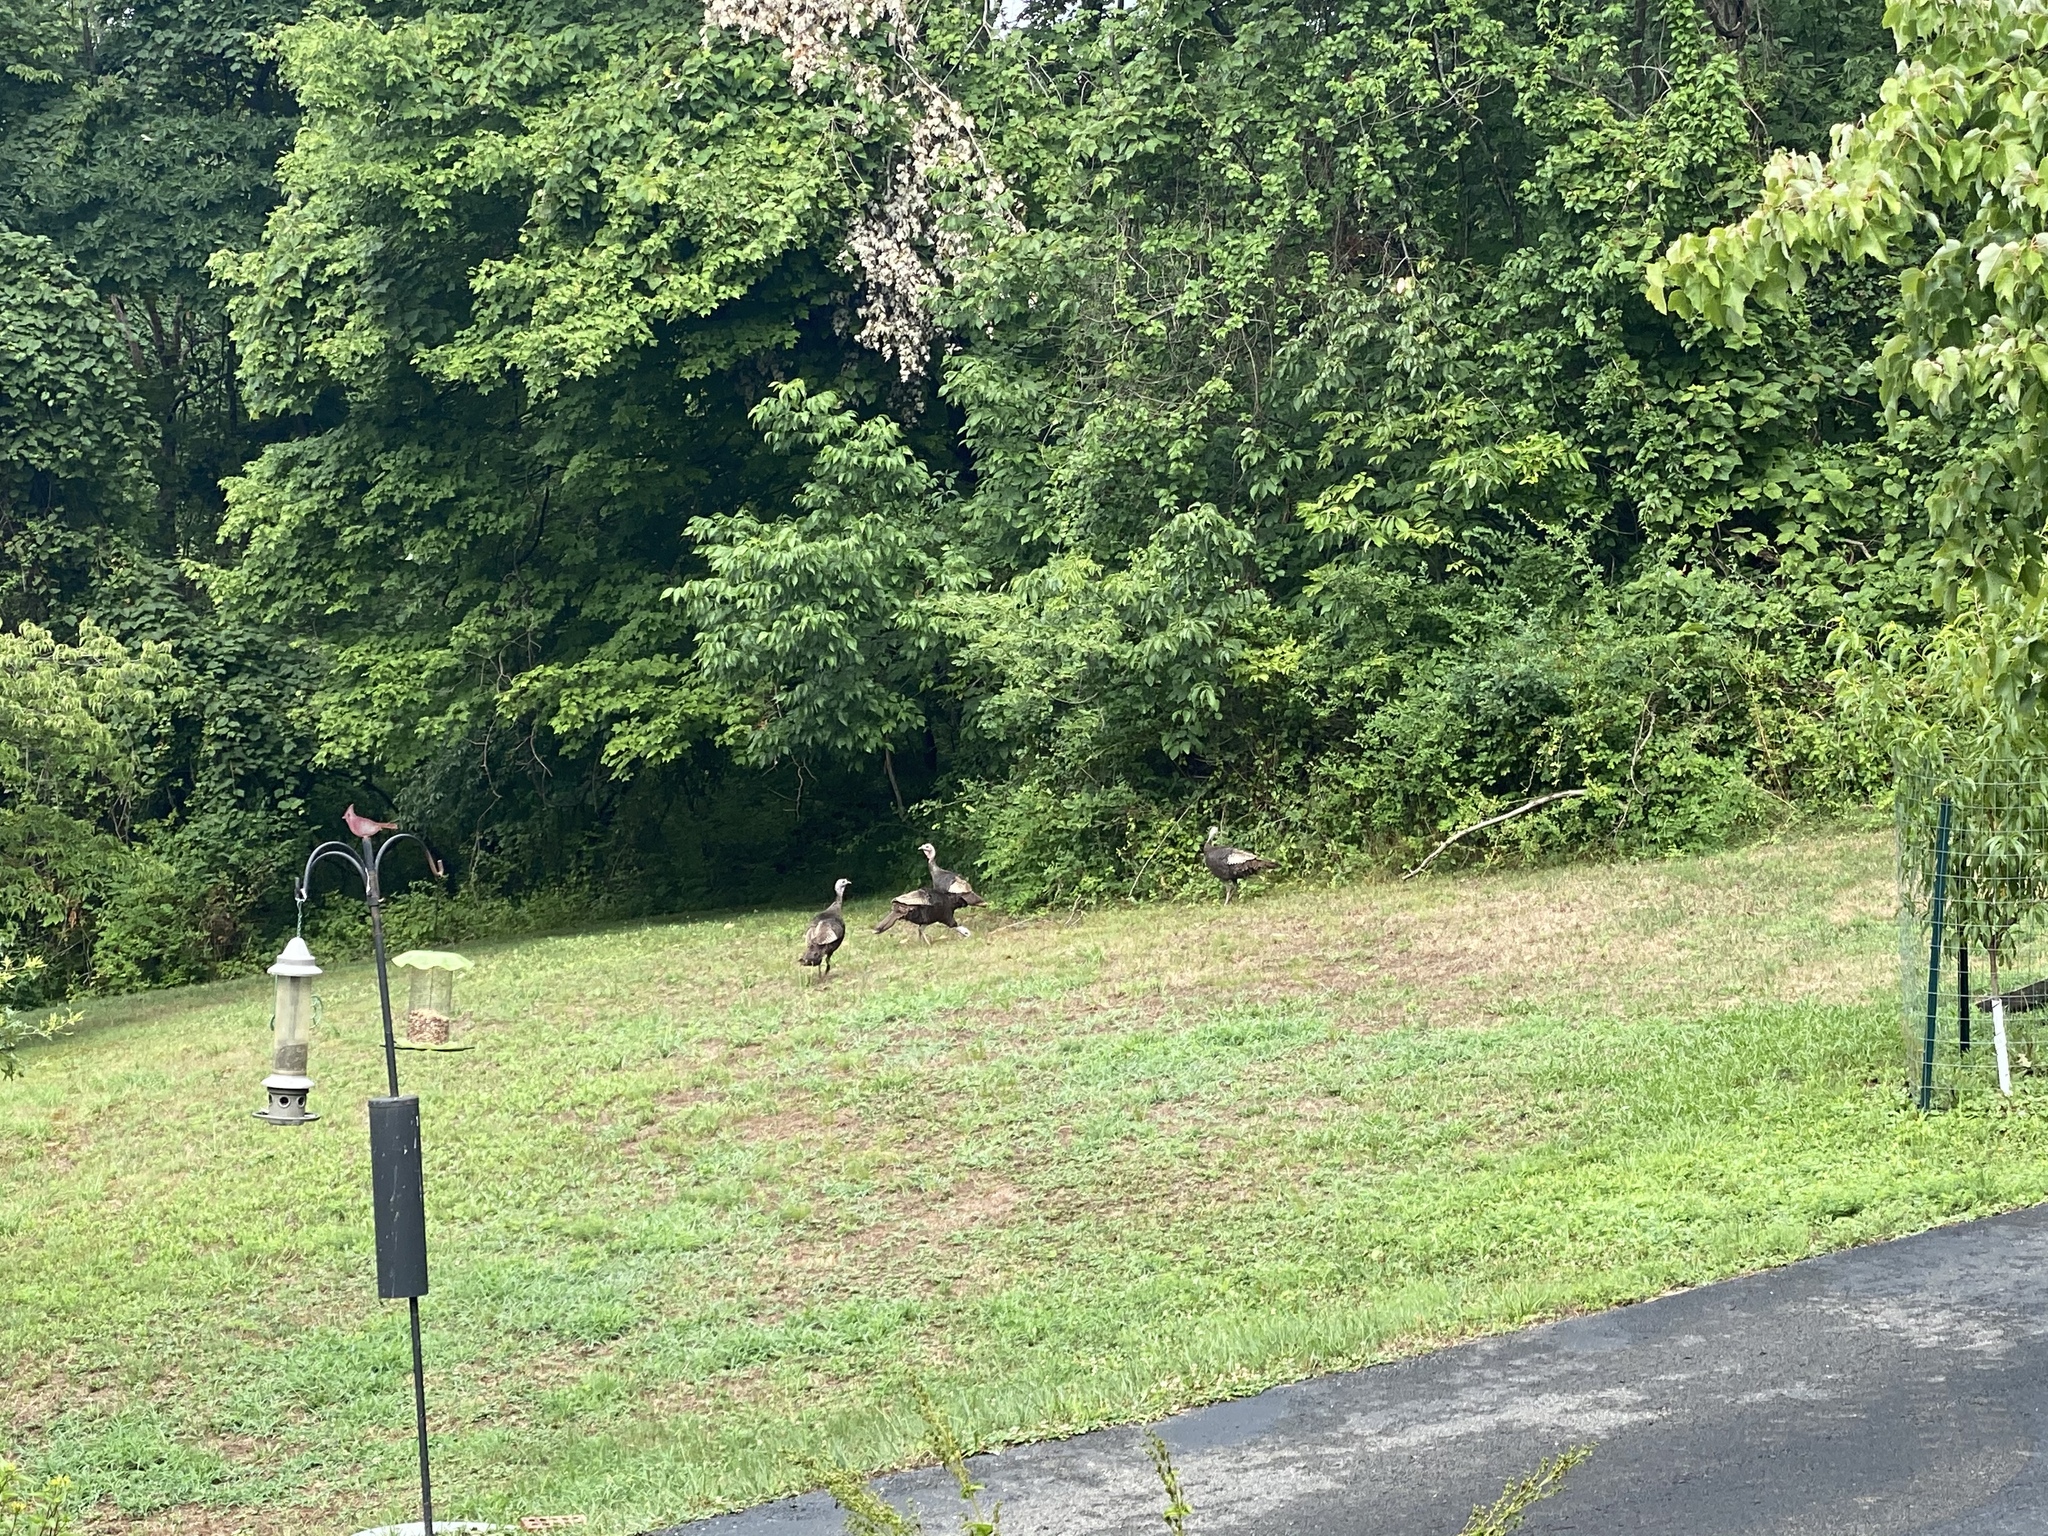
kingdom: Animalia
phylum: Chordata
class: Aves
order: Galliformes
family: Phasianidae
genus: Meleagris
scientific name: Meleagris gallopavo
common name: Wild turkey
